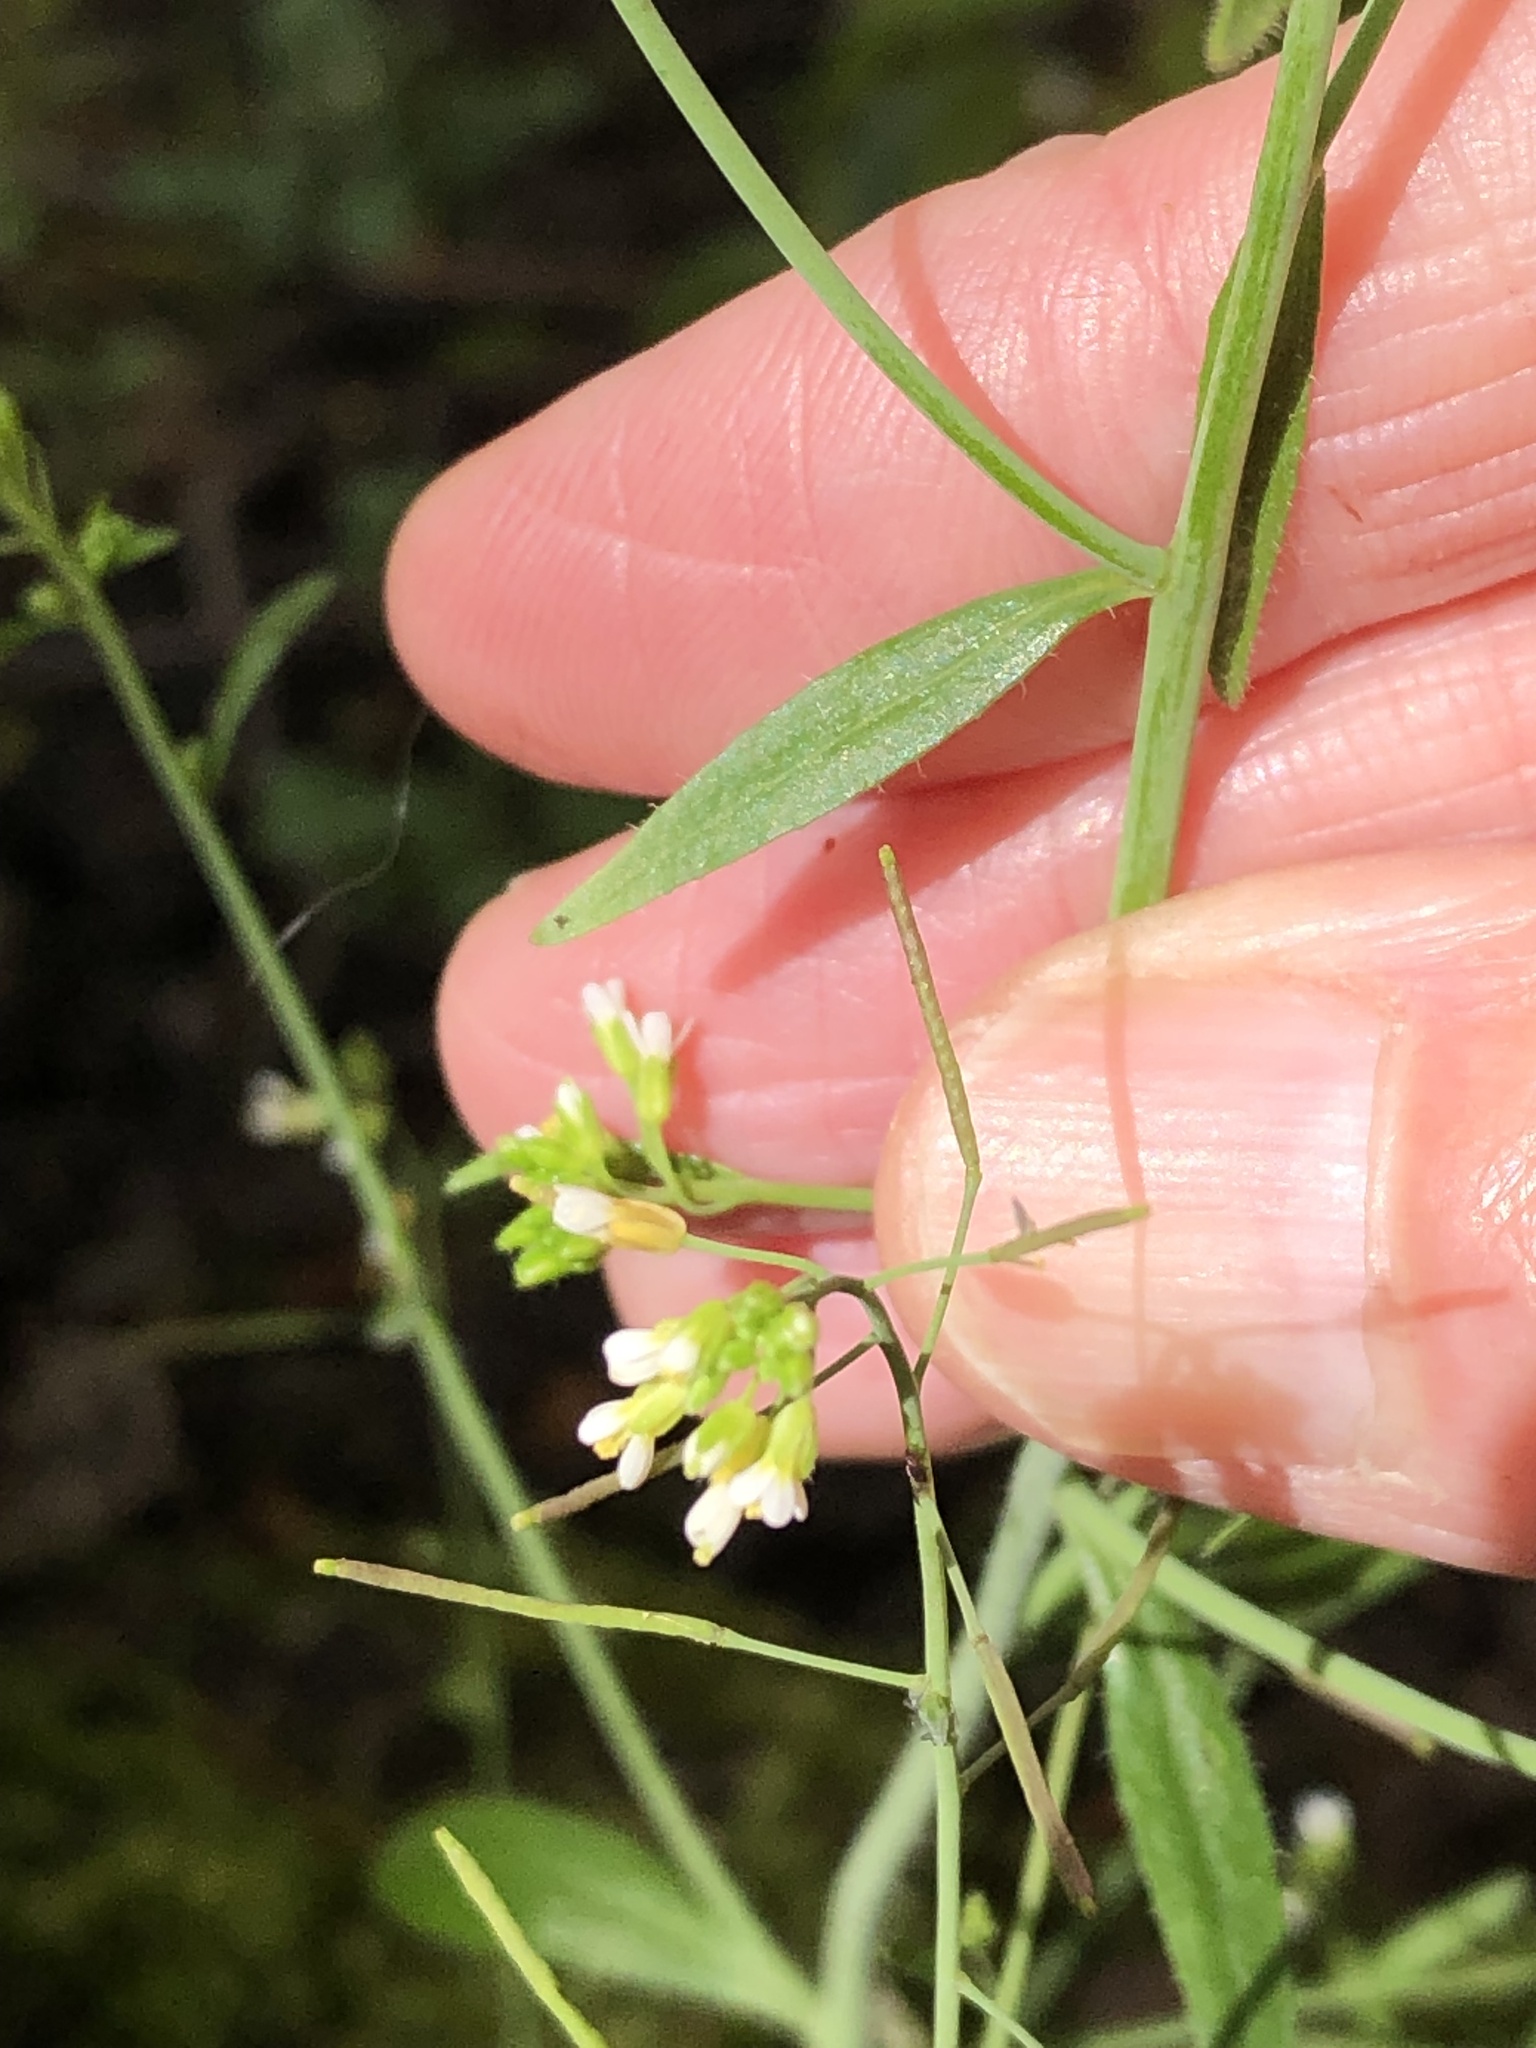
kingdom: Plantae
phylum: Tracheophyta
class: Magnoliopsida
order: Brassicales
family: Brassicaceae
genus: Arabidopsis
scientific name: Arabidopsis thaliana
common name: Thale cress
